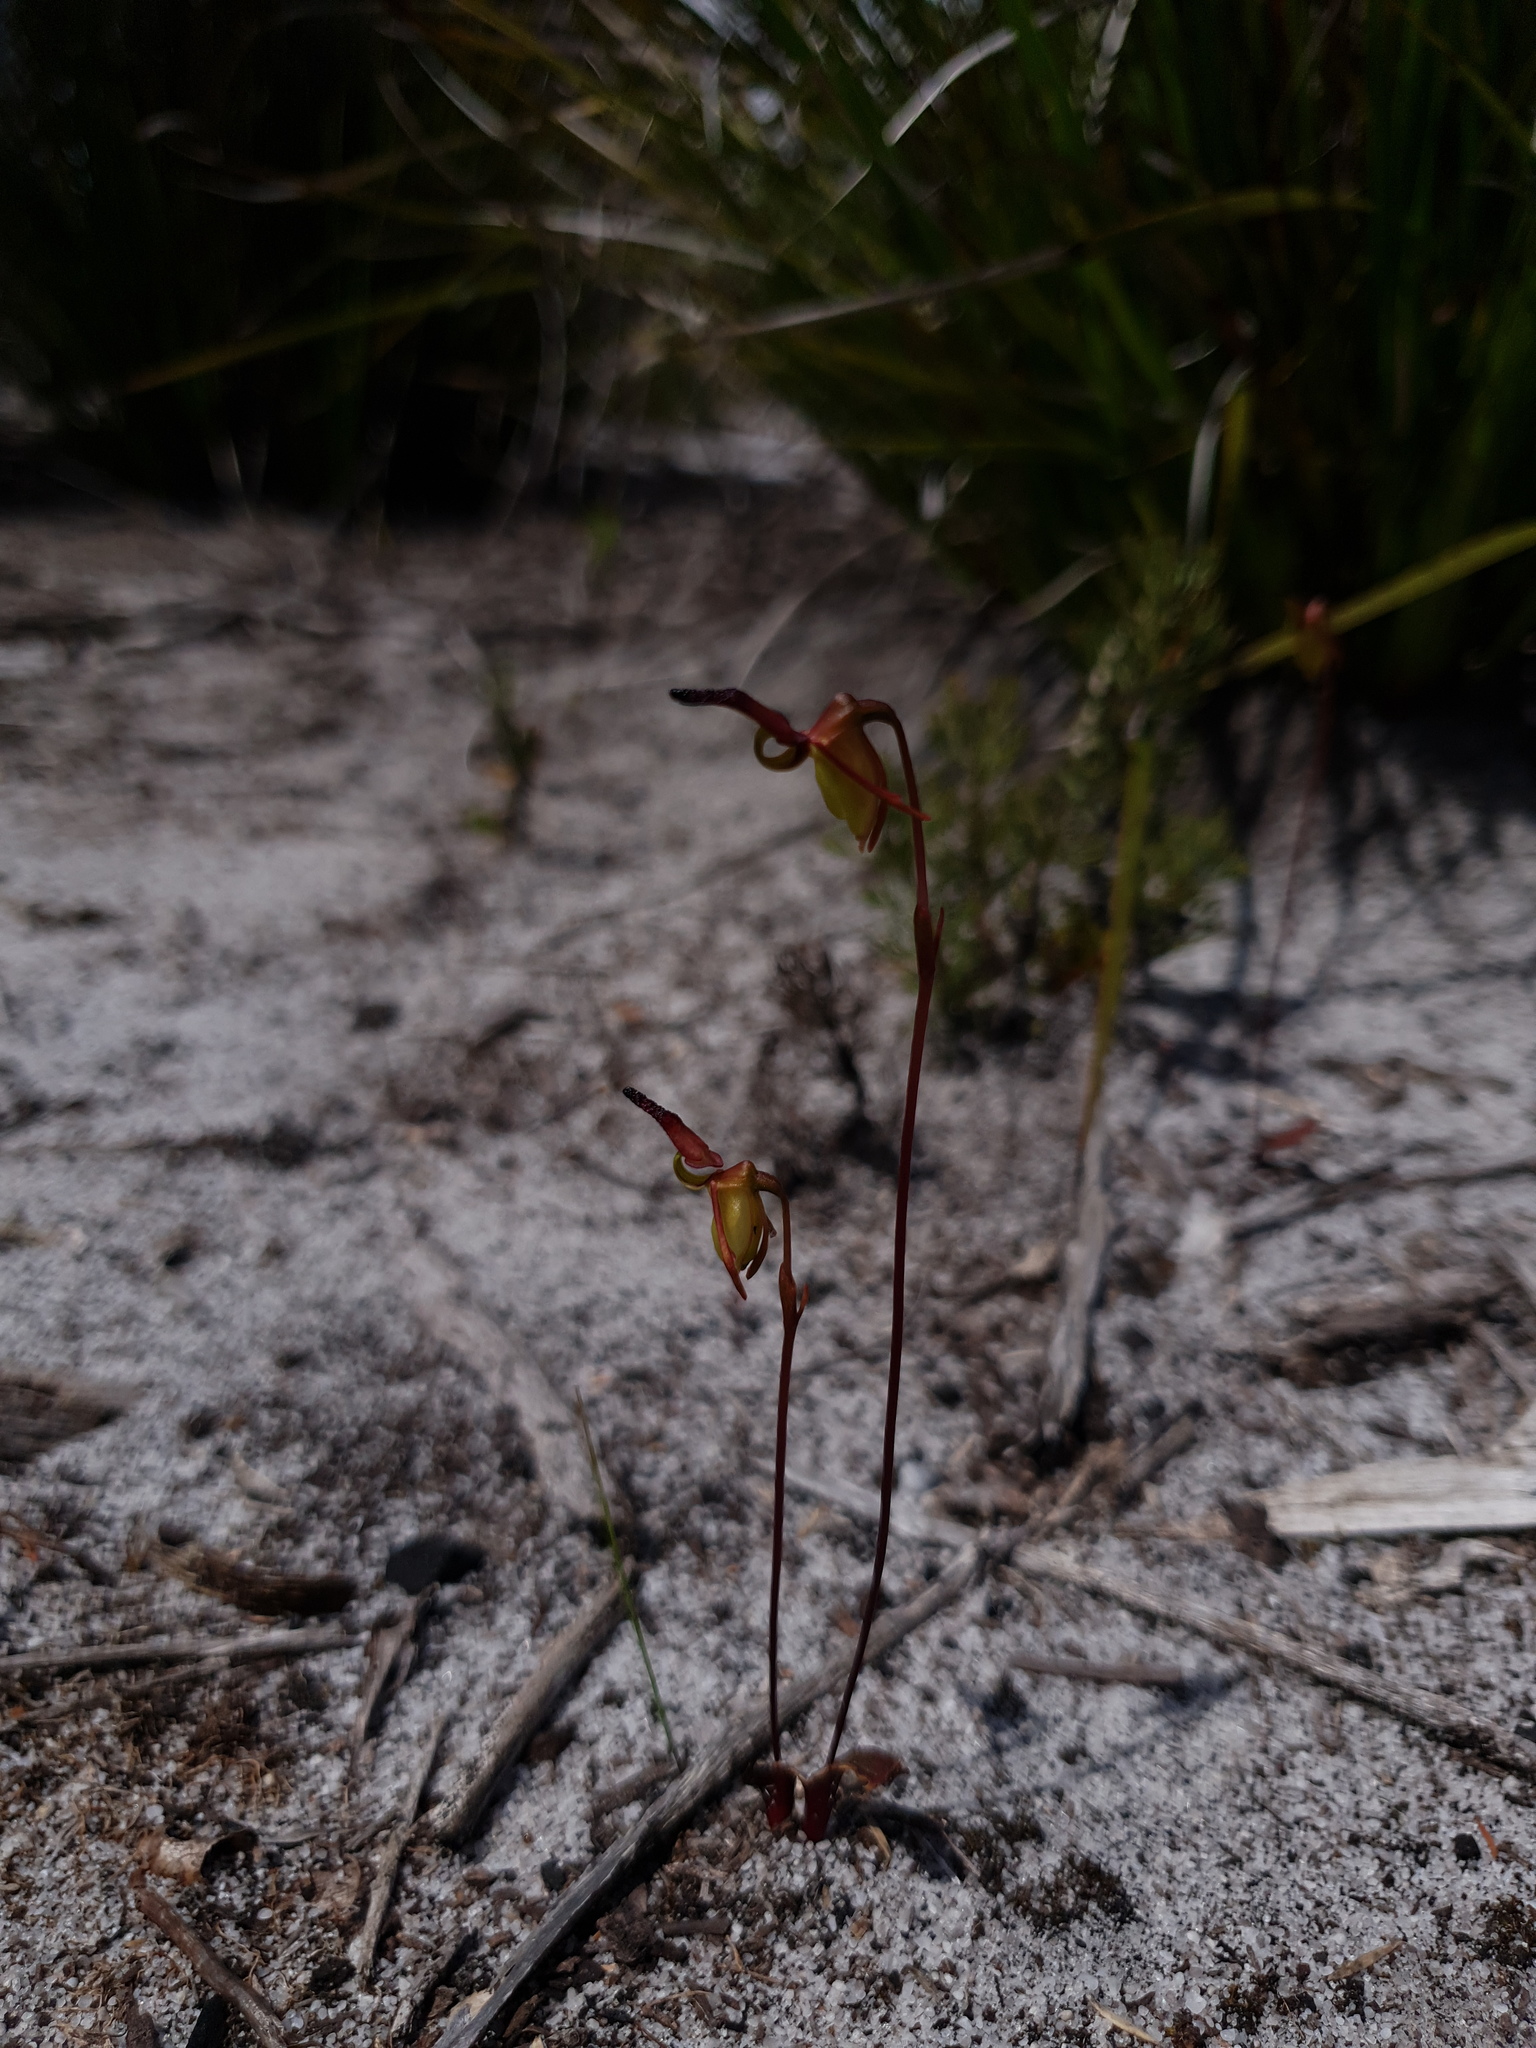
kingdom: Plantae
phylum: Tracheophyta
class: Liliopsida
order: Asparagales
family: Orchidaceae
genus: Caleana
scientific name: Caleana nigrita
